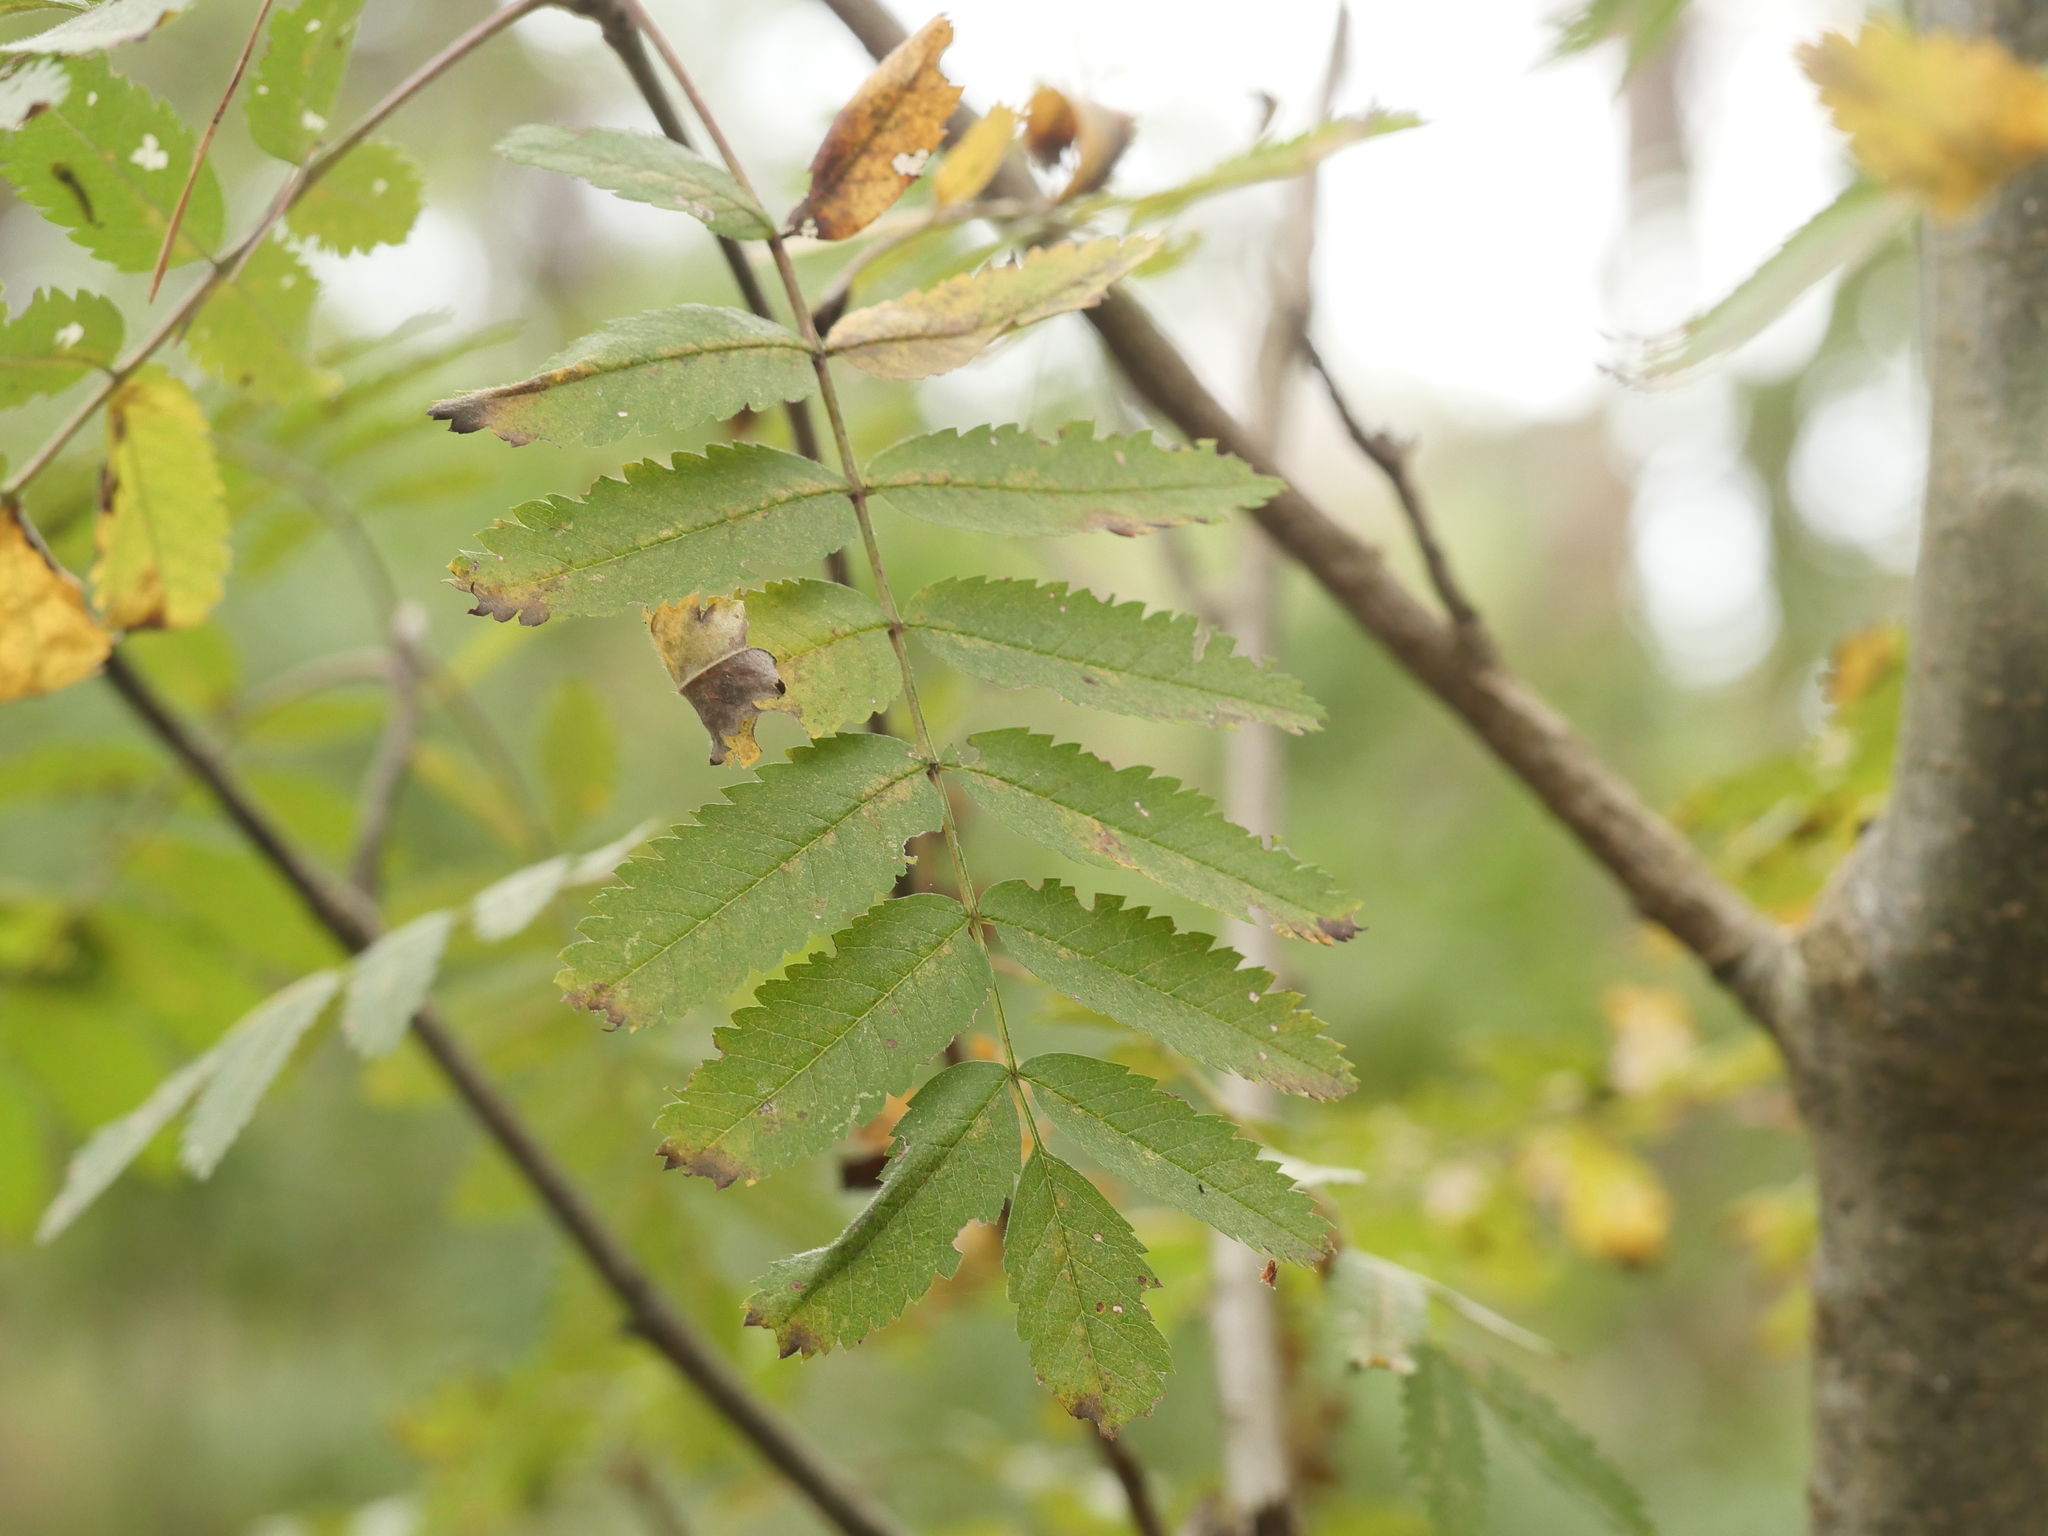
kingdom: Plantae
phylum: Tracheophyta
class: Magnoliopsida
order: Rosales
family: Rosaceae
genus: Sorbus
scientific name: Sorbus aucuparia
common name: Rowan
